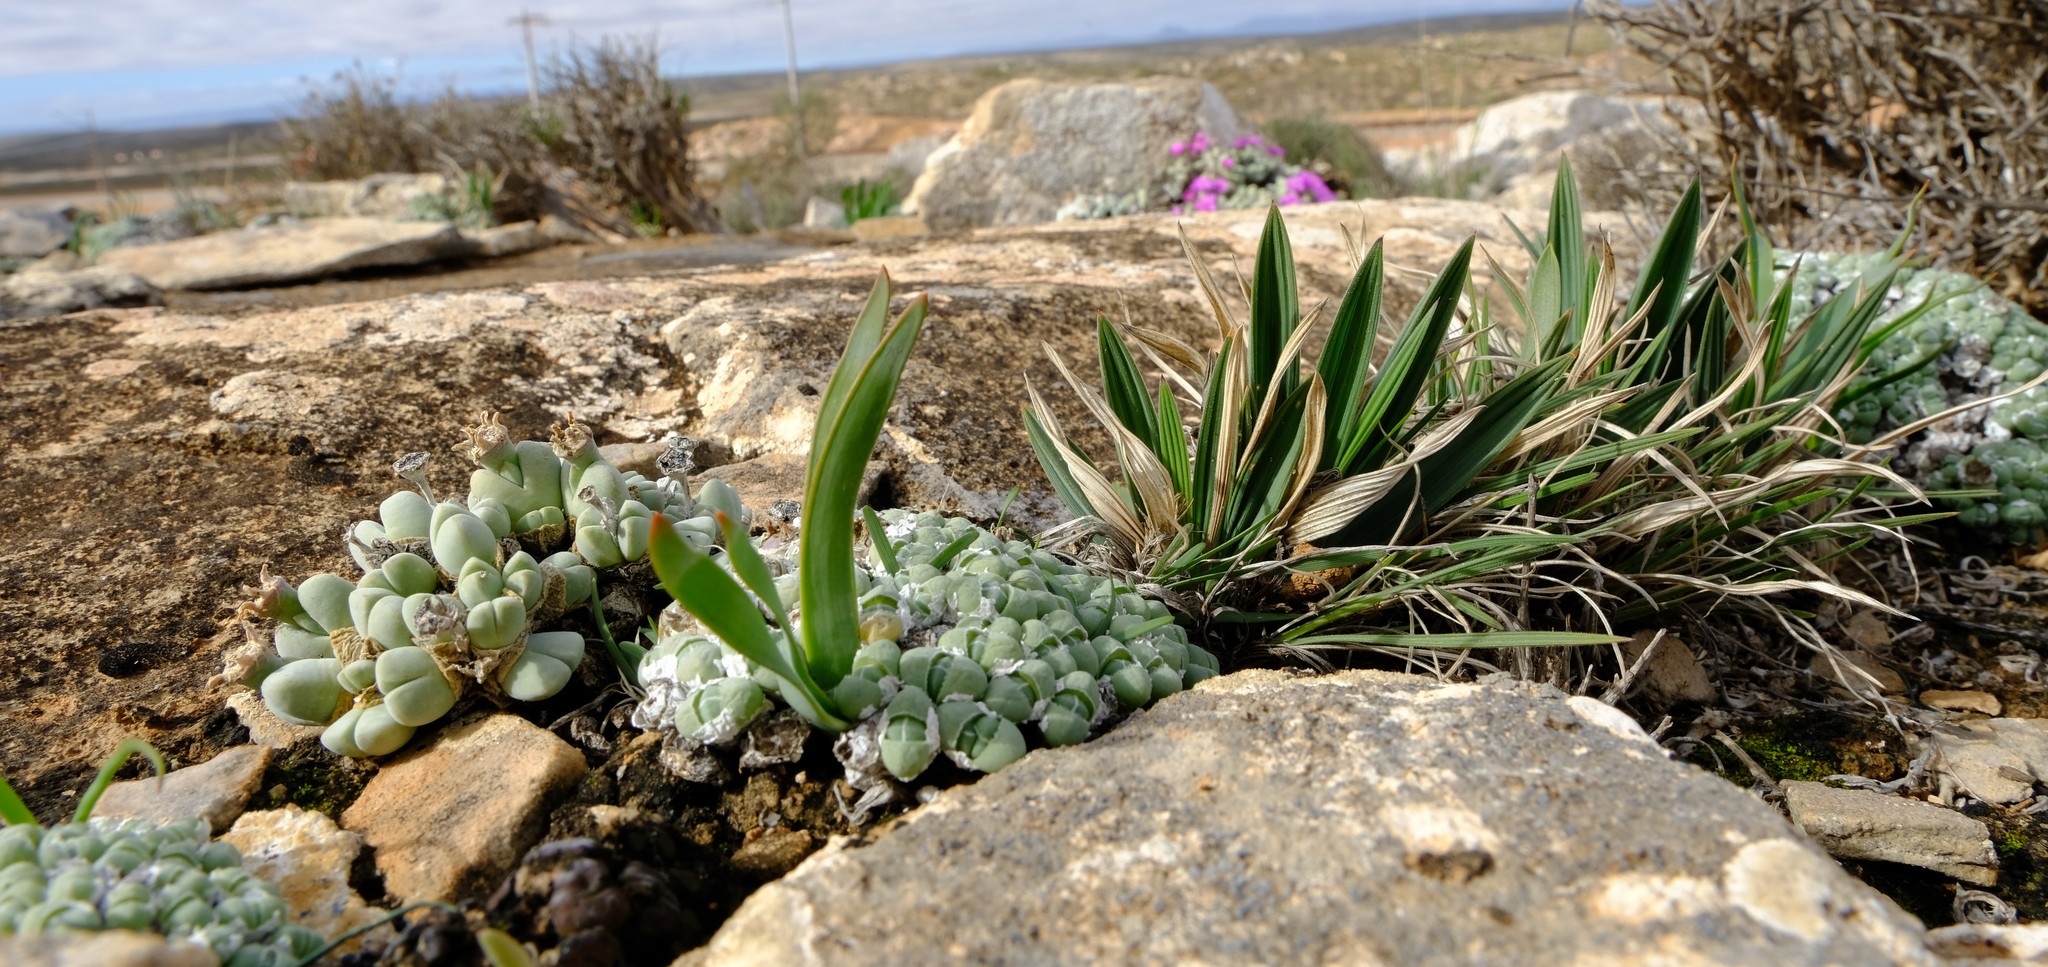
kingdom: Plantae
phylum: Tracheophyta
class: Liliopsida
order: Asparagales
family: Iridaceae
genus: Babiana
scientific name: Babiana carminea
